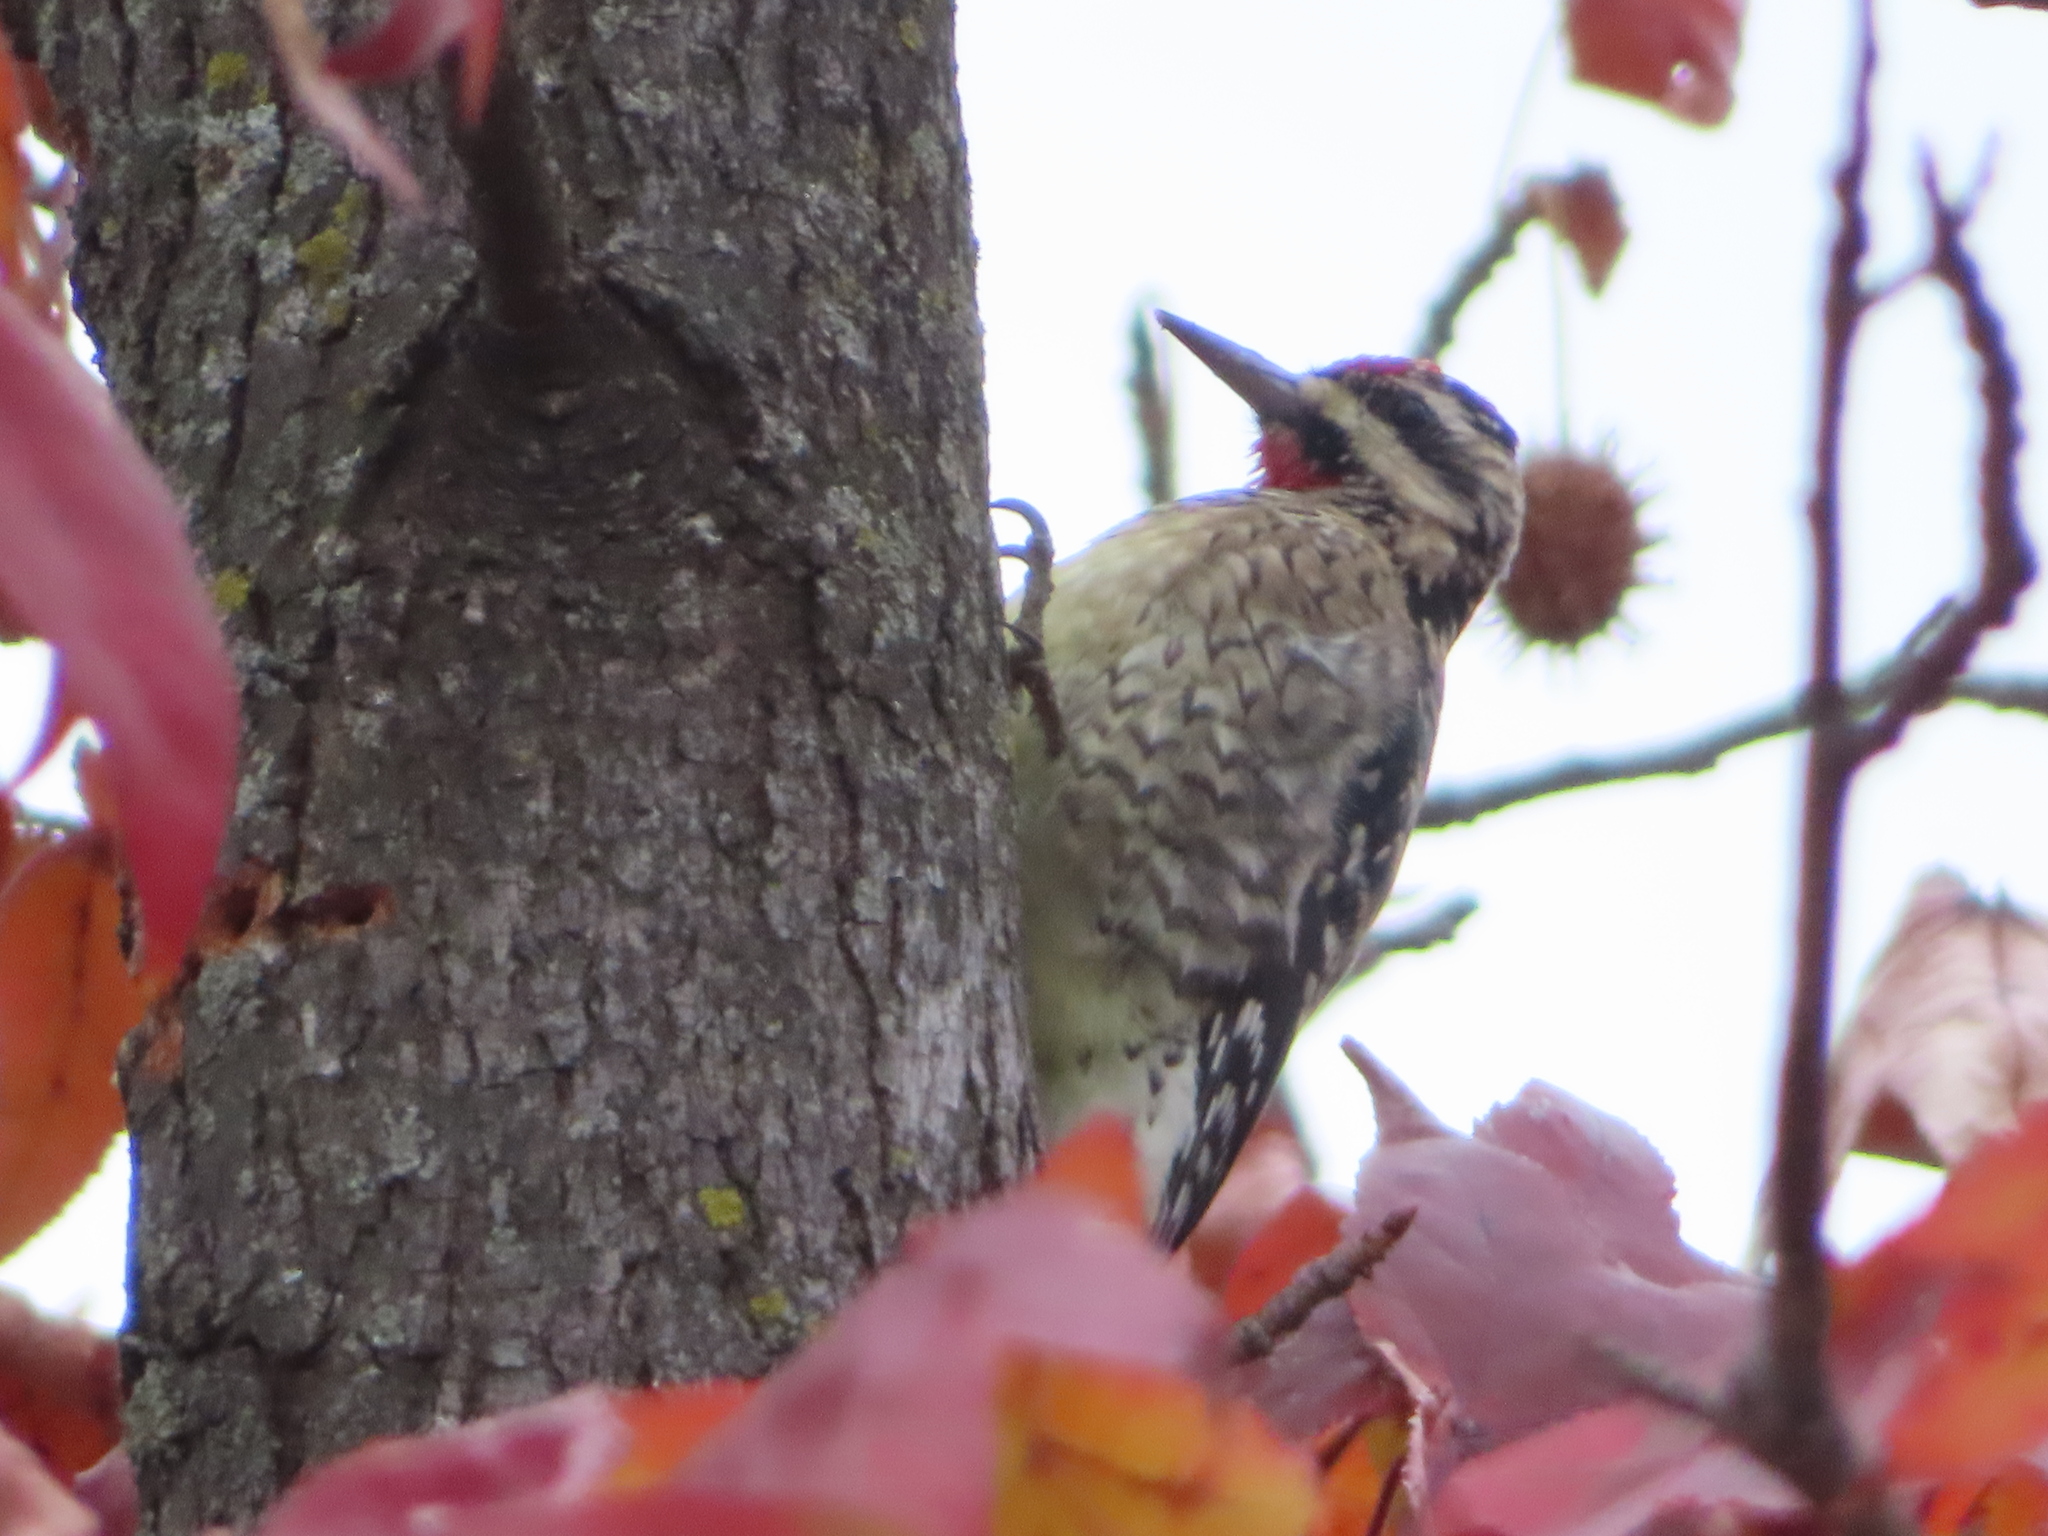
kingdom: Animalia
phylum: Chordata
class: Aves
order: Piciformes
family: Picidae
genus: Sphyrapicus
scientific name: Sphyrapicus varius
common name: Yellow-bellied sapsucker
